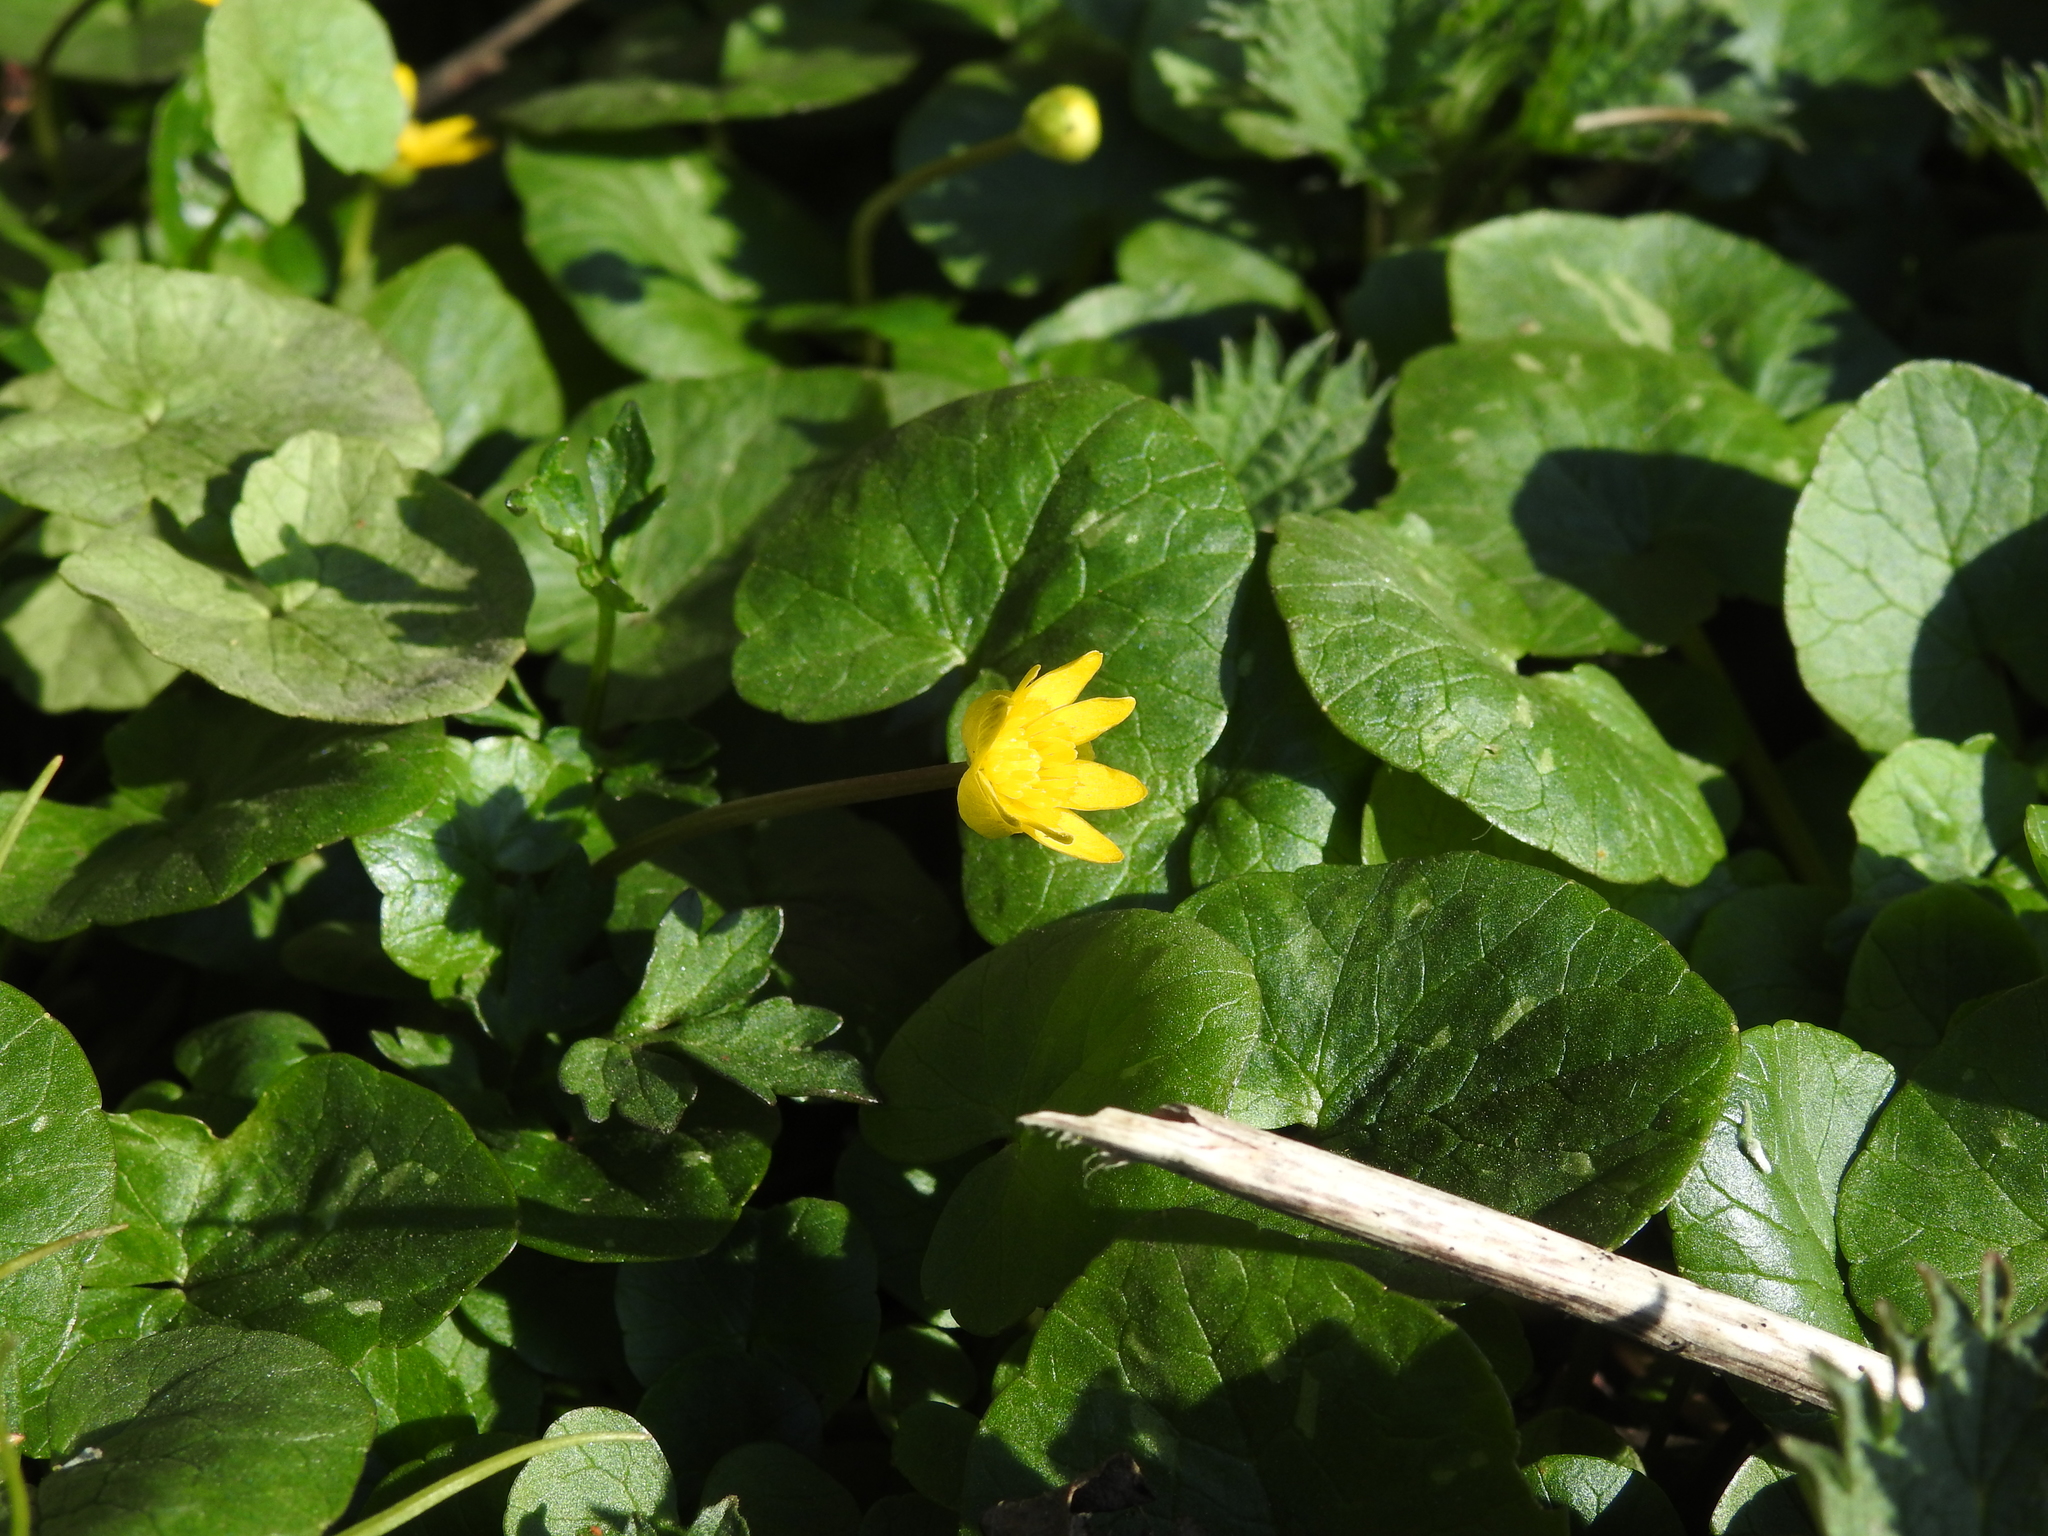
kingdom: Plantae
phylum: Tracheophyta
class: Magnoliopsida
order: Ranunculales
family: Ranunculaceae
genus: Ficaria
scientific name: Ficaria verna
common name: Lesser celandine
